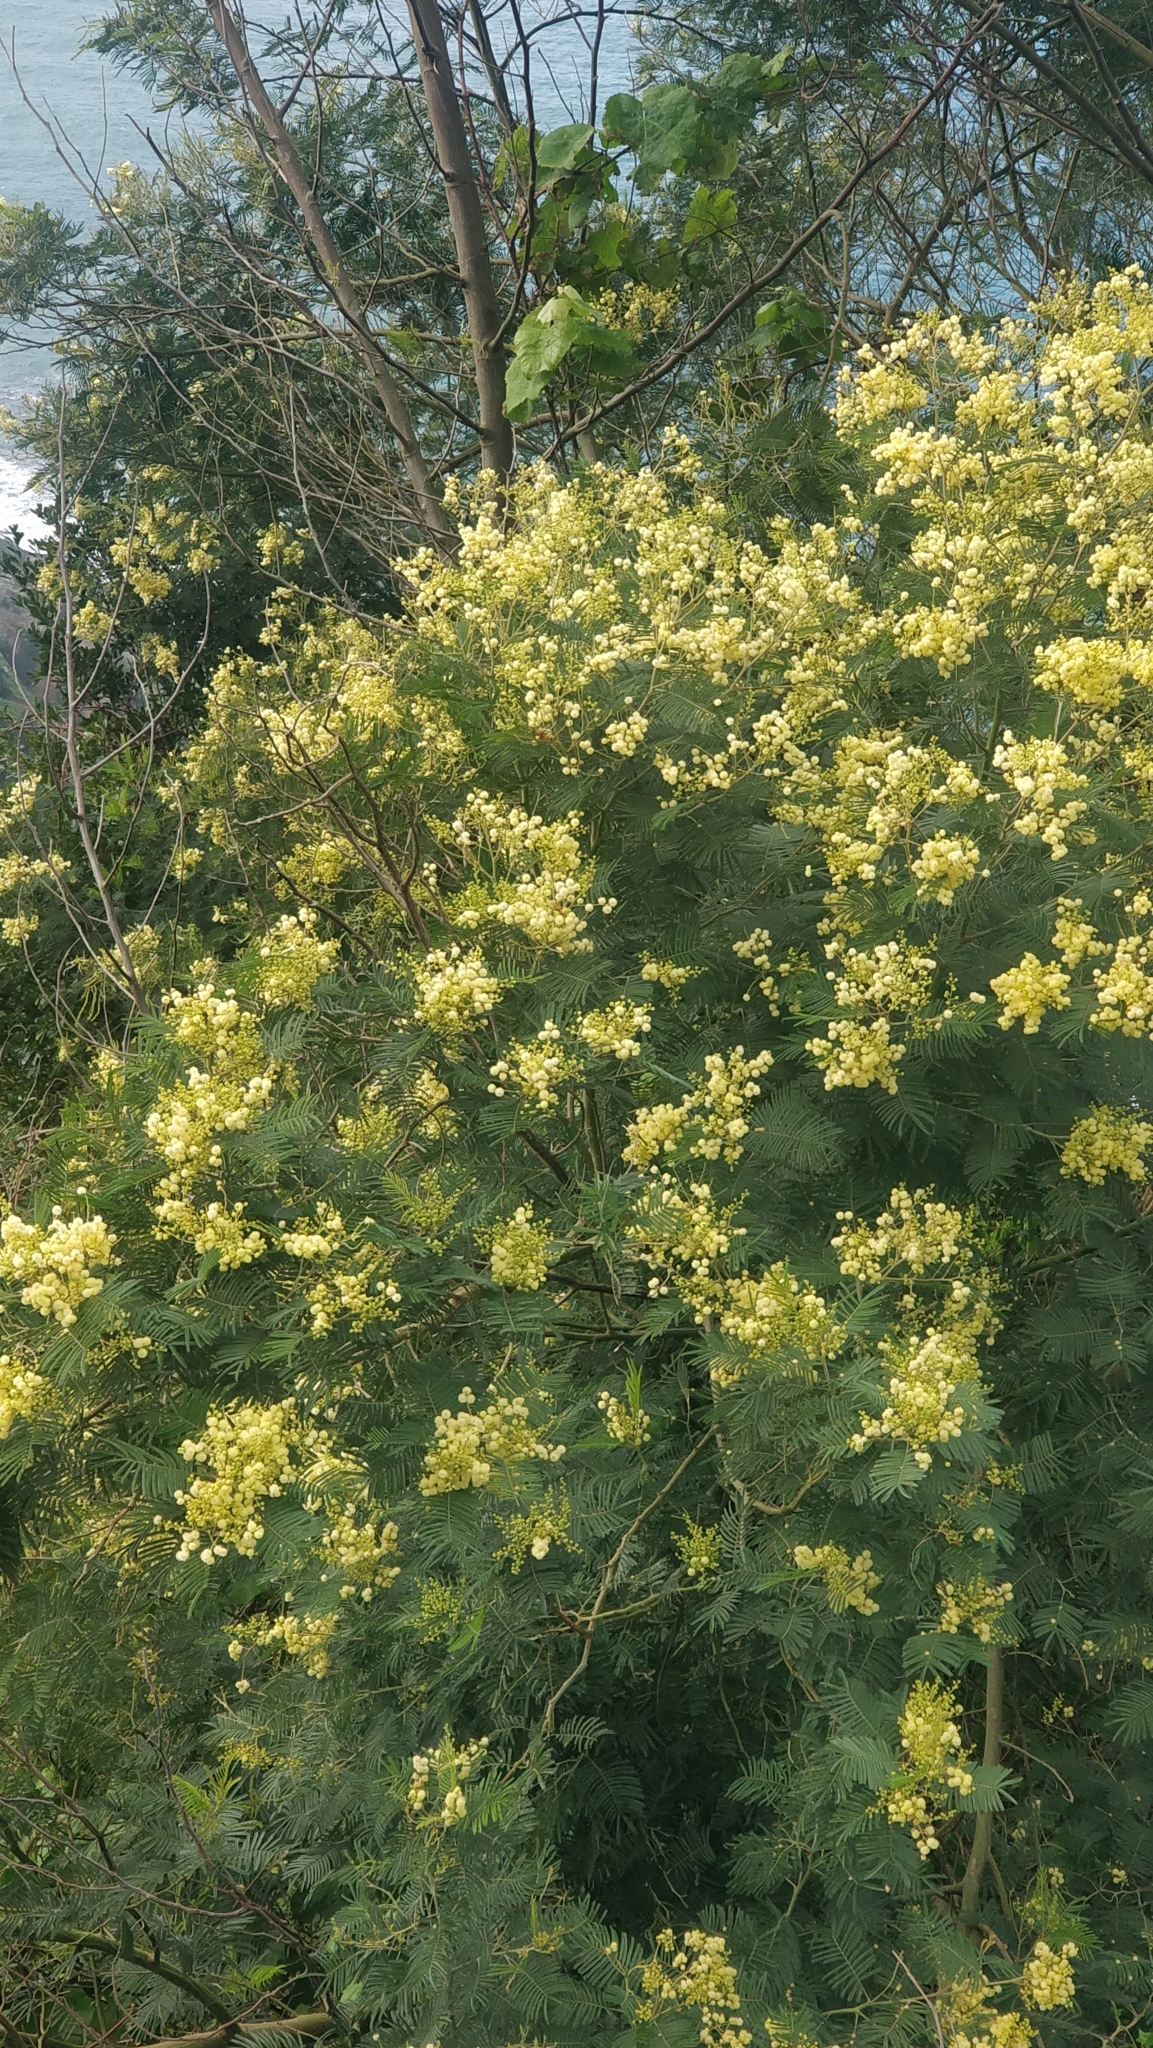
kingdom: Plantae
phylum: Tracheophyta
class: Magnoliopsida
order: Fabales
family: Fabaceae
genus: Acacia
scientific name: Acacia mearnsii
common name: Black wattle
